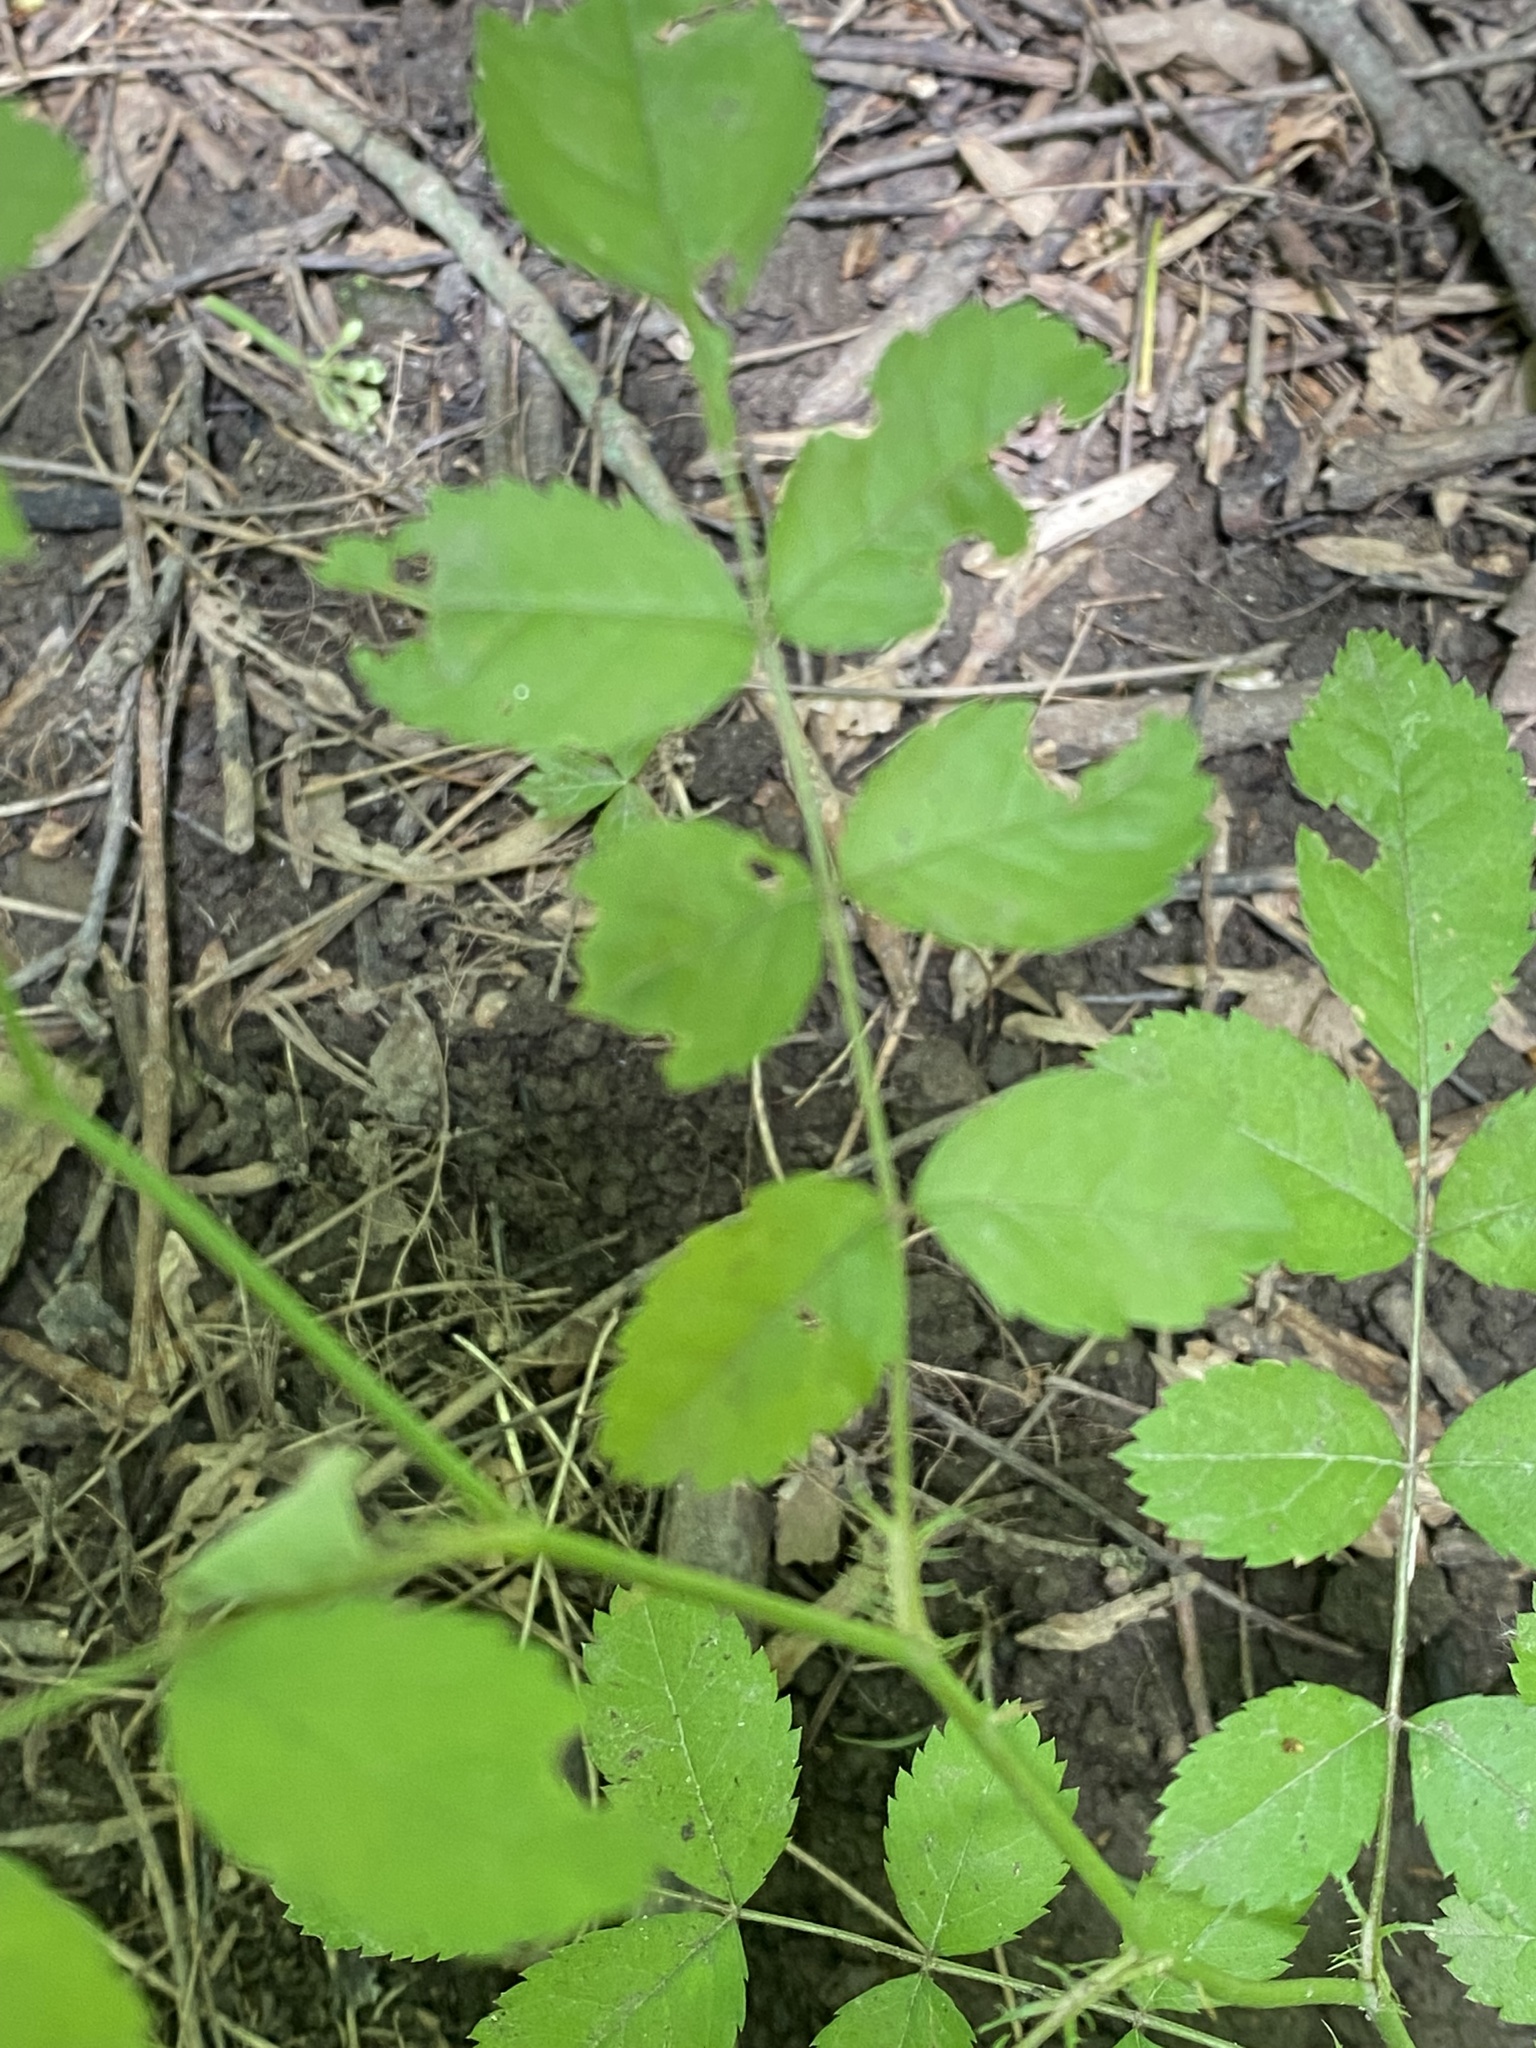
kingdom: Plantae
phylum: Tracheophyta
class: Magnoliopsida
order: Rosales
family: Rosaceae
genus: Rosa
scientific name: Rosa multiflora
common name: Multiflora rose
